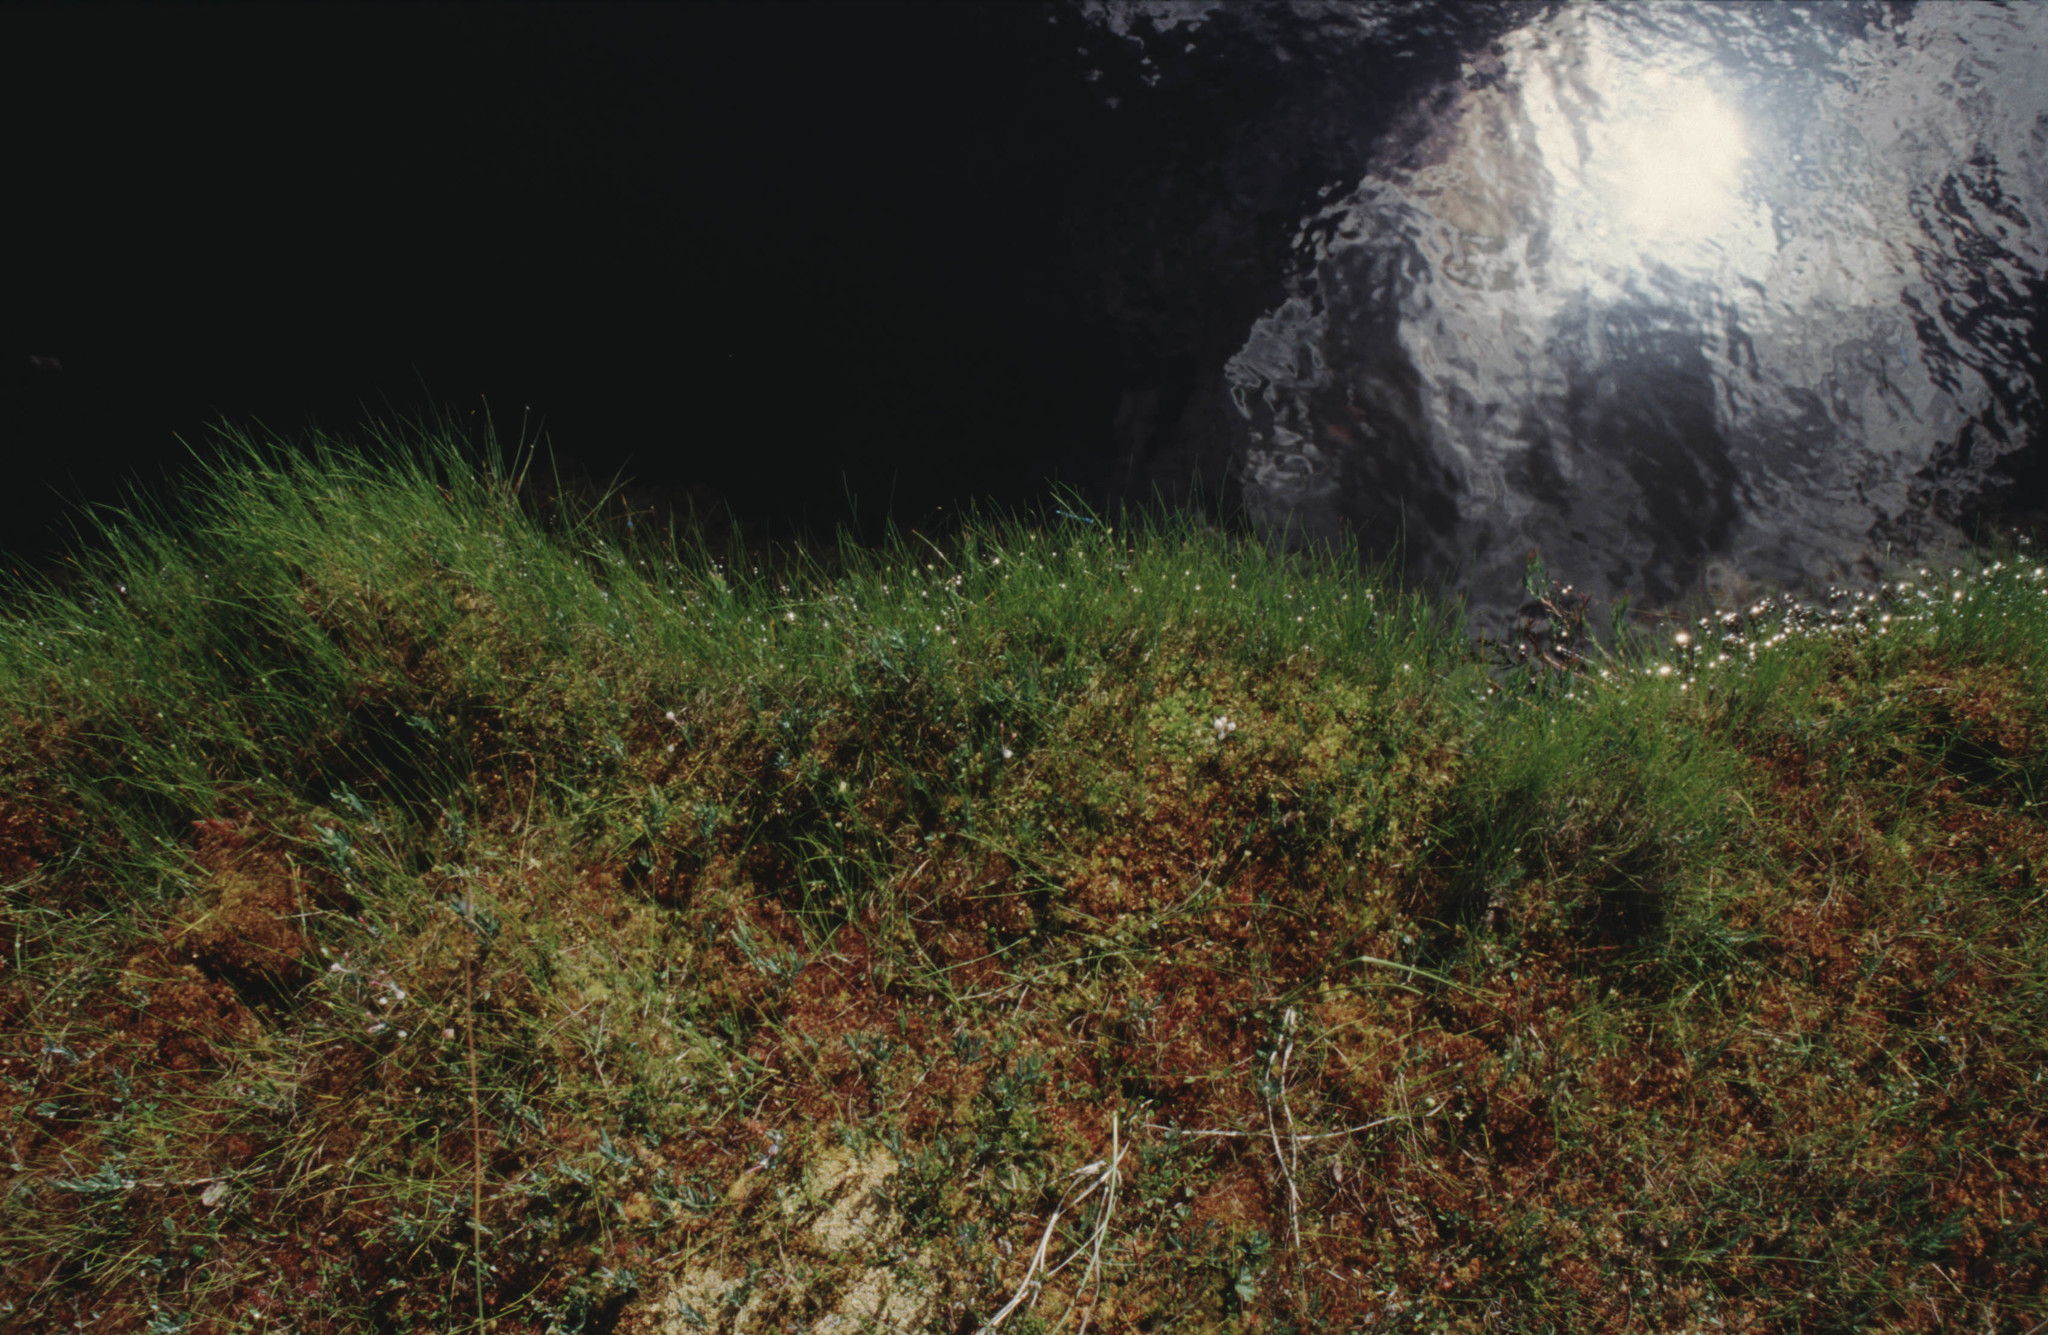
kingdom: Plantae
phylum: Tracheophyta
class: Magnoliopsida
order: Ericales
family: Ericaceae
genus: Andromeda
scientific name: Andromeda polifolia
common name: Bog-rosemary
